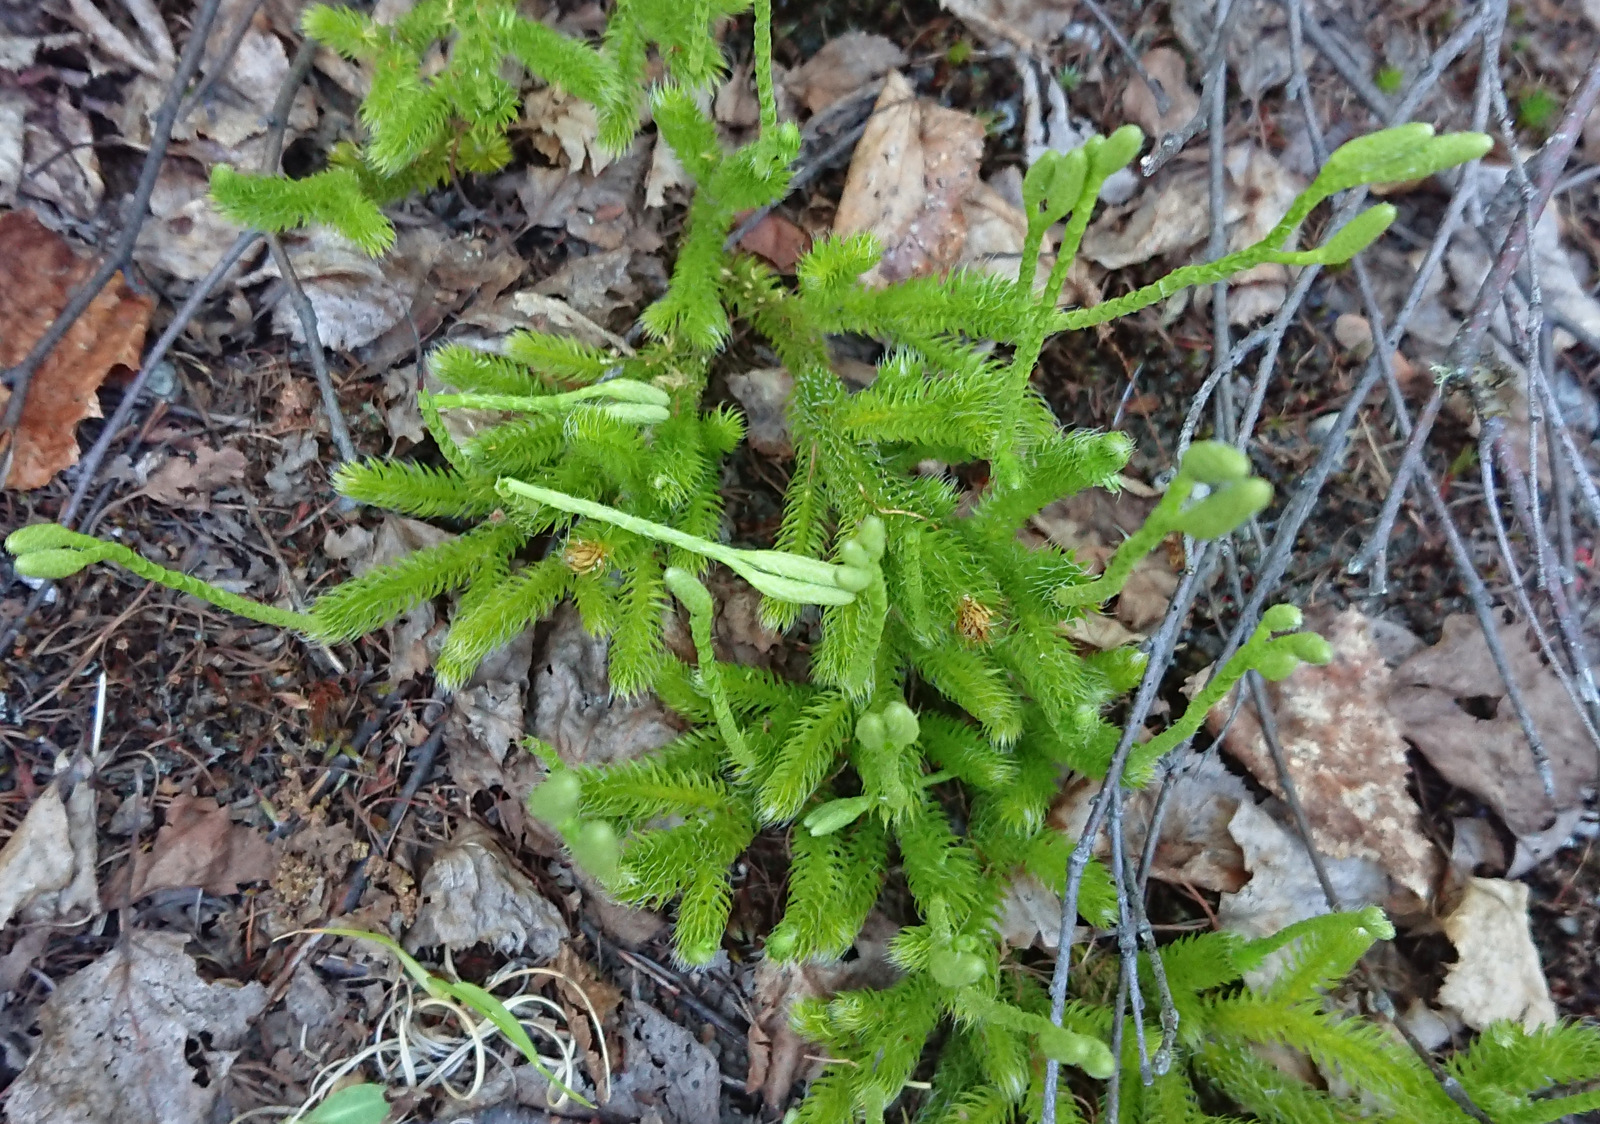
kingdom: Plantae
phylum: Tracheophyta
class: Lycopodiopsida
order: Lycopodiales
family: Lycopodiaceae
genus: Lycopodium
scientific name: Lycopodium clavatum
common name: Stag's-horn clubmoss
